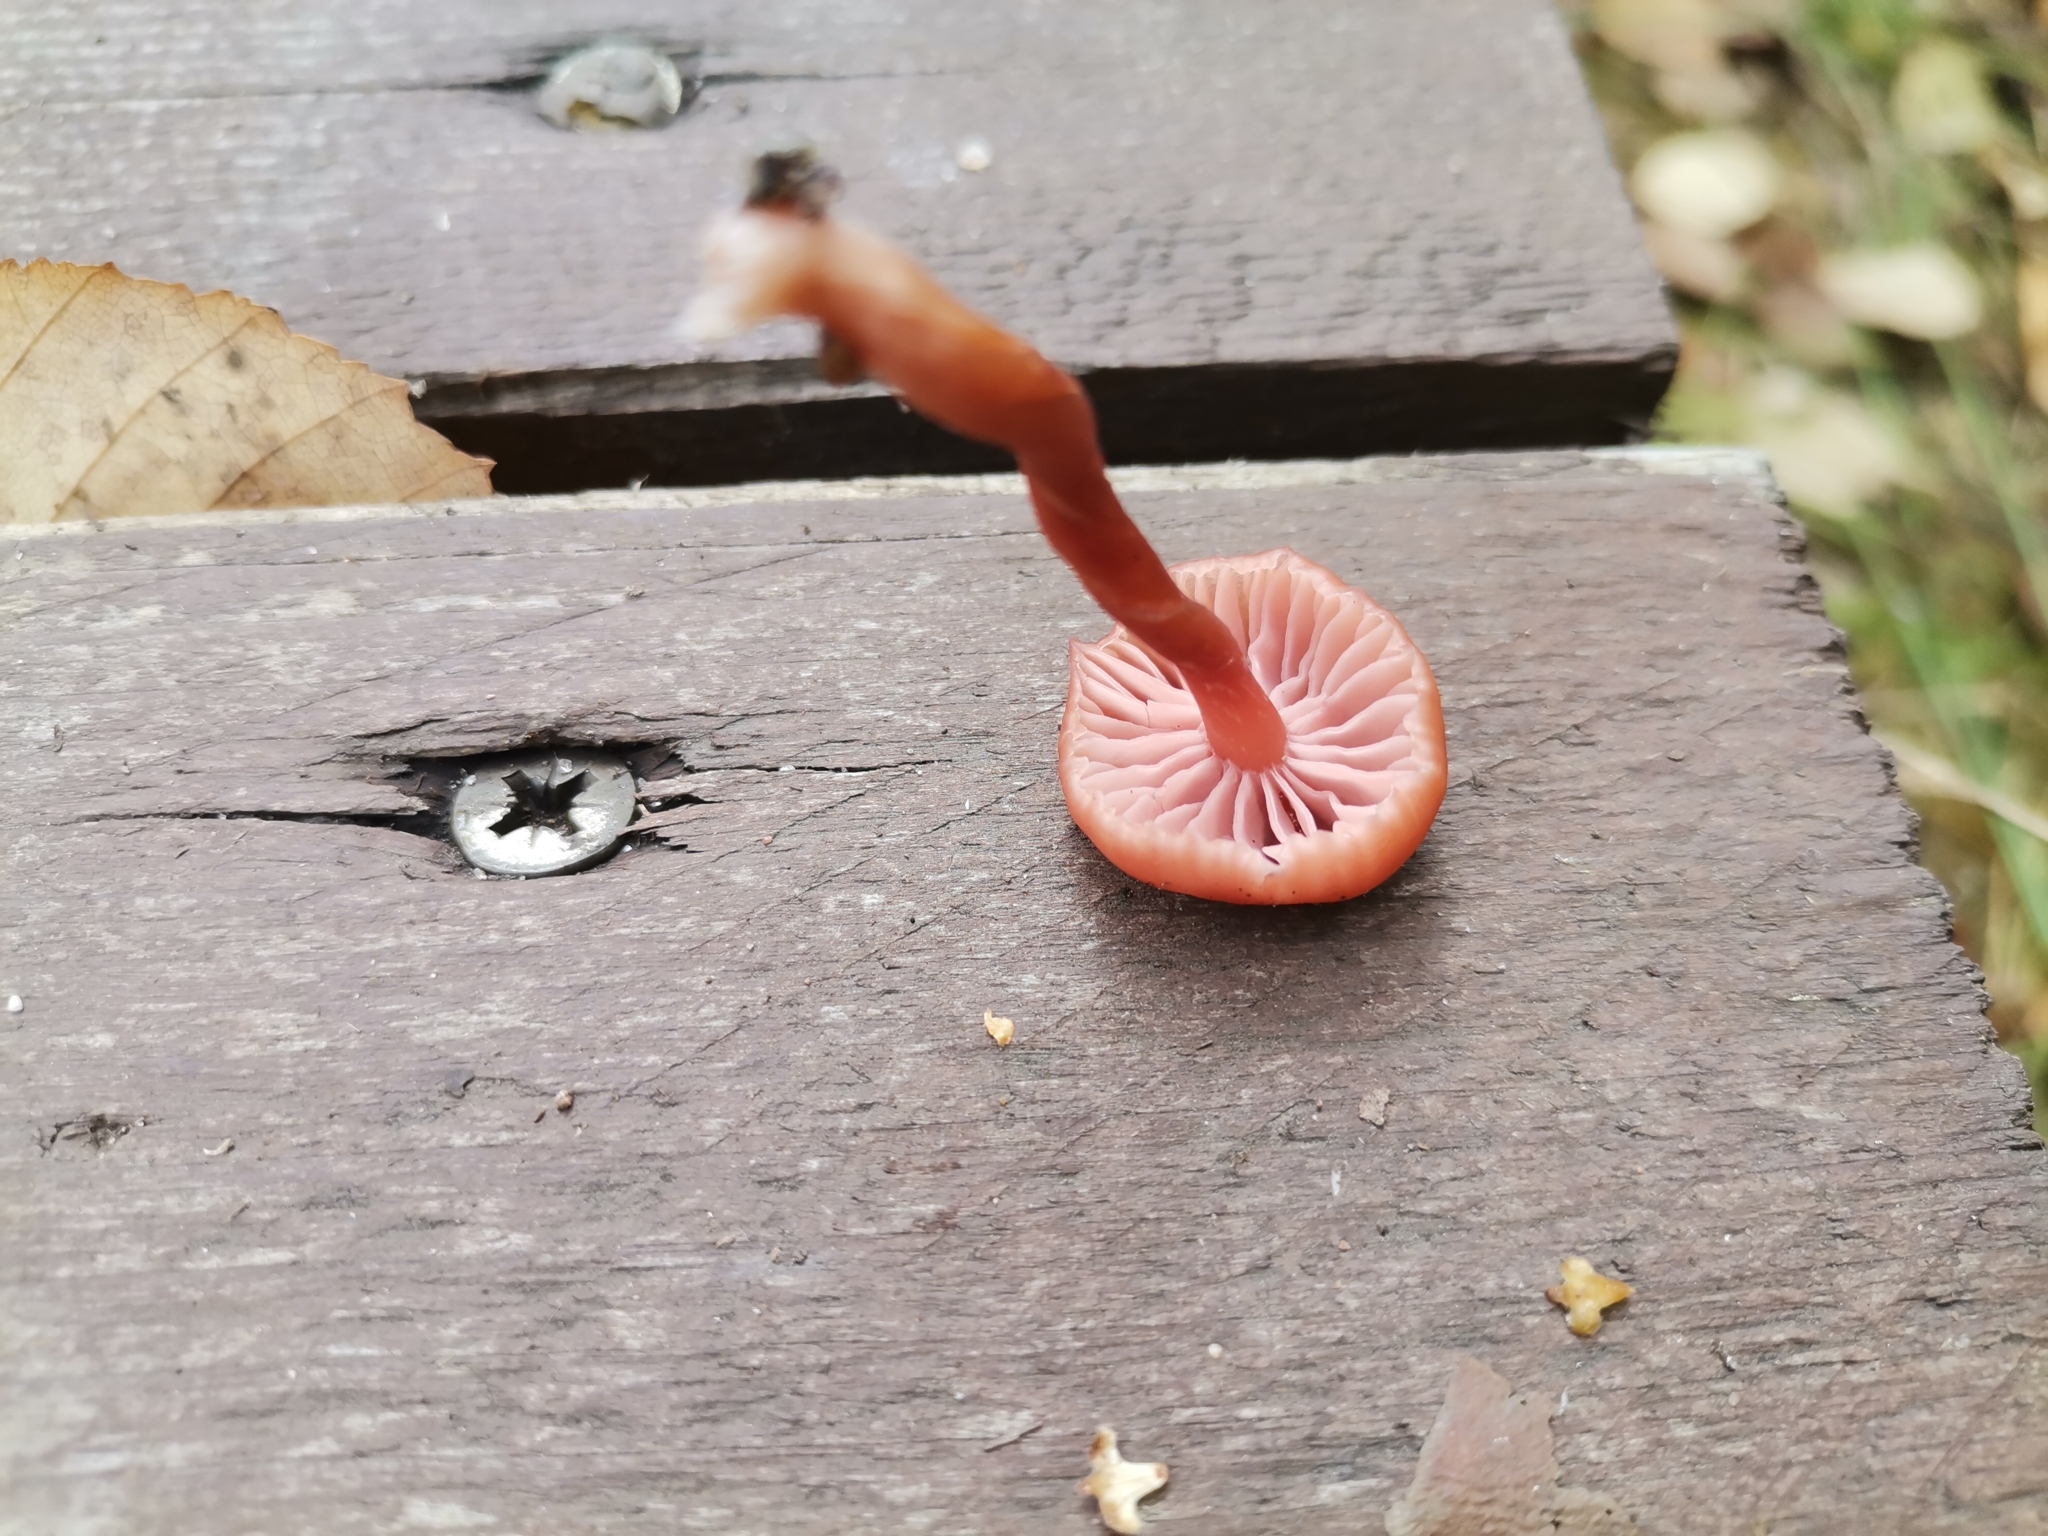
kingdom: Fungi
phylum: Basidiomycota
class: Agaricomycetes
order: Agaricales
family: Hydnangiaceae
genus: Laccaria
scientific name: Laccaria laccata
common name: Deceiver
